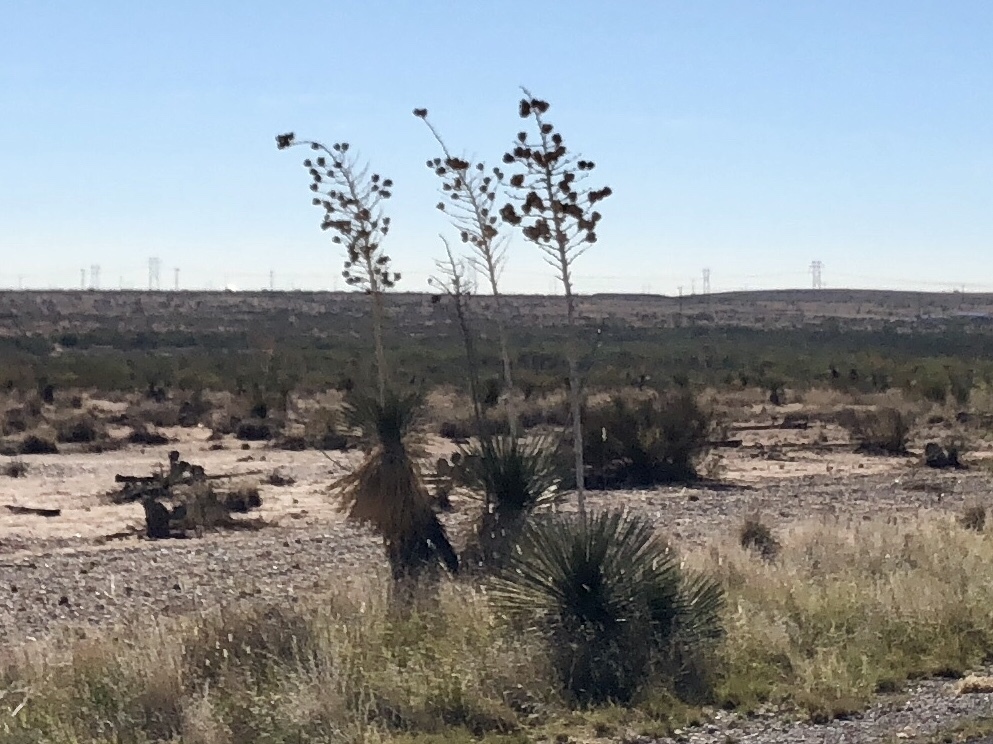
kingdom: Plantae
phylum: Tracheophyta
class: Liliopsida
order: Asparagales
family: Asparagaceae
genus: Yucca
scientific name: Yucca elata
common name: Palmella
